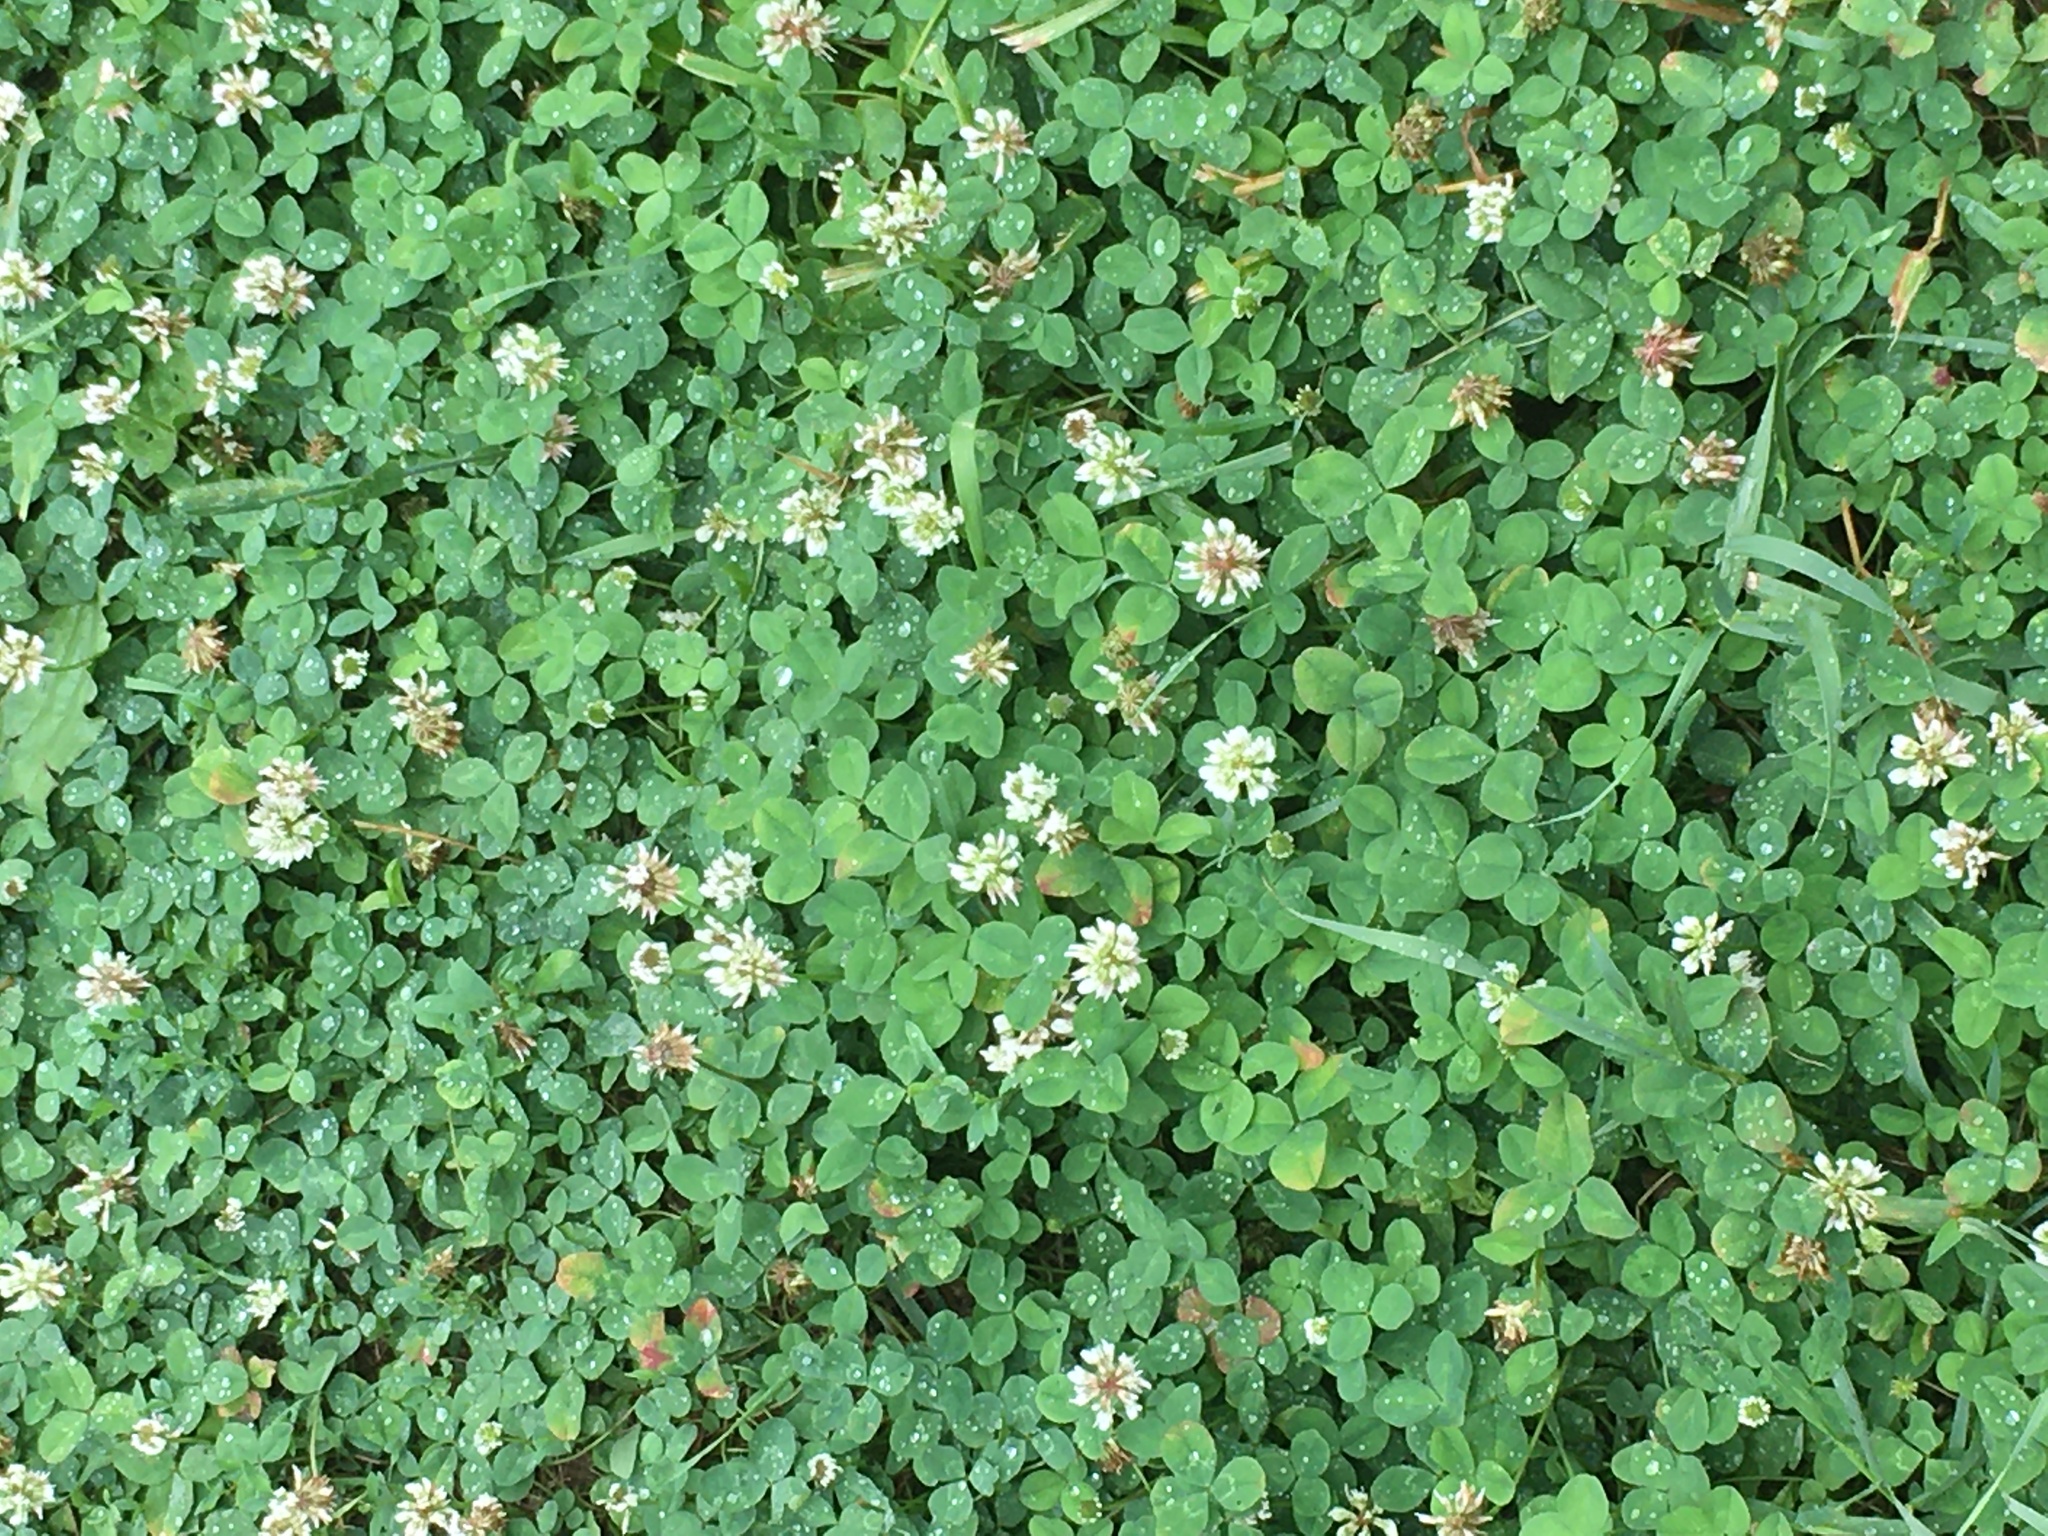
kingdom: Plantae
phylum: Tracheophyta
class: Magnoliopsida
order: Fabales
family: Fabaceae
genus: Trifolium
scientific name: Trifolium repens
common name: White clover
